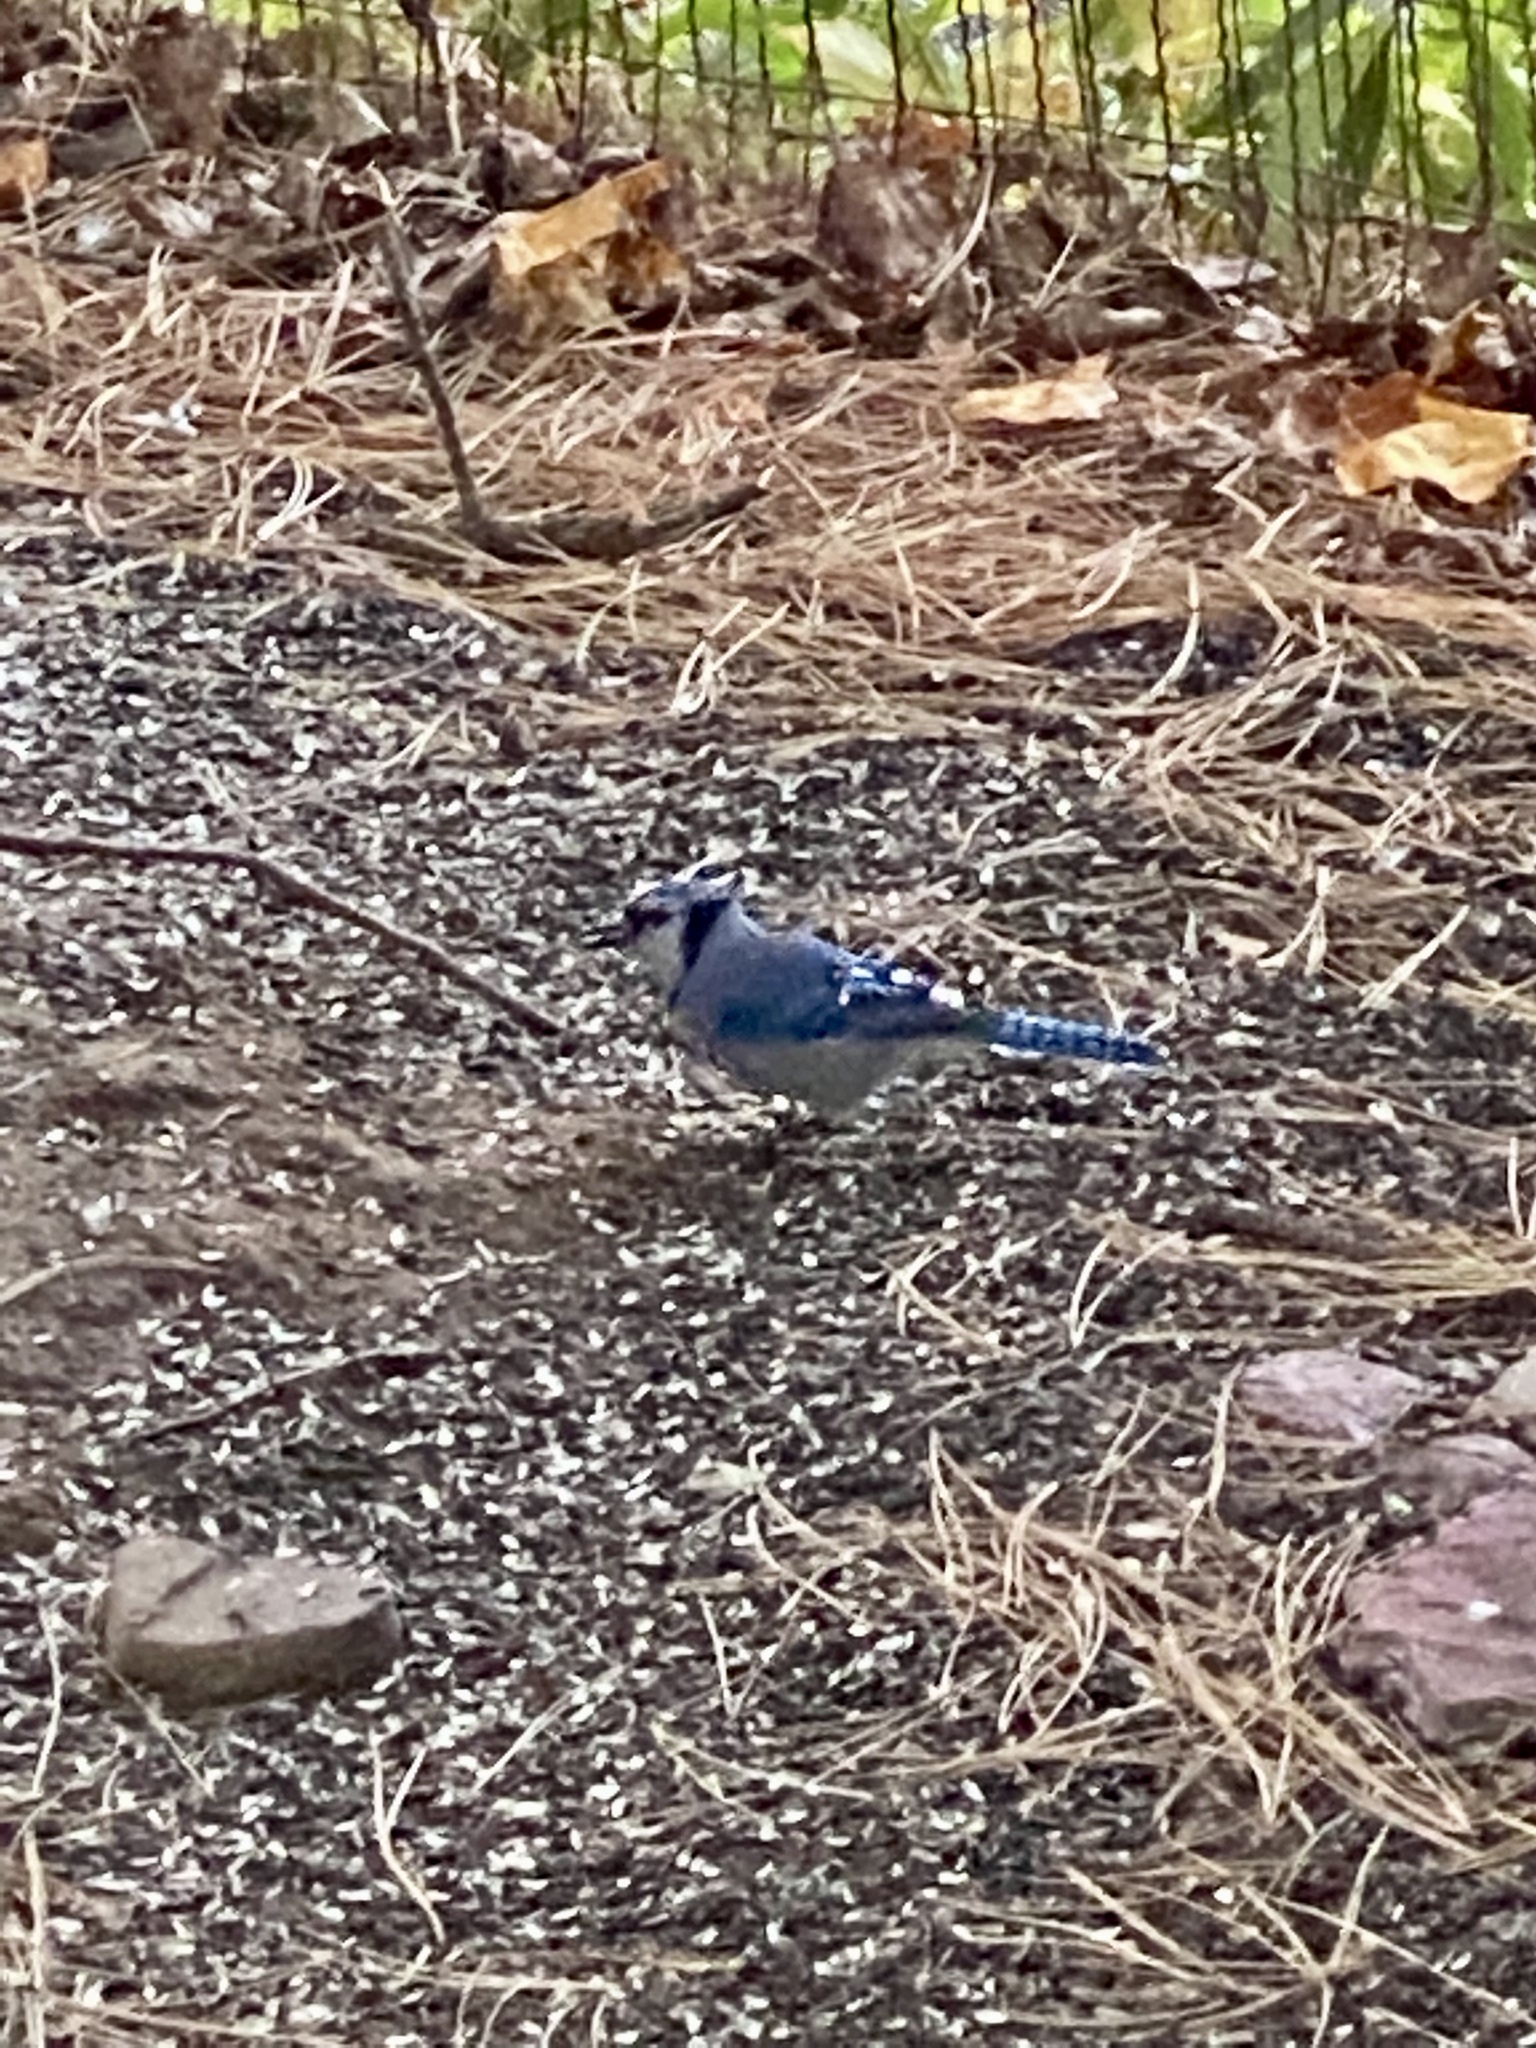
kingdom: Animalia
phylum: Chordata
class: Aves
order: Passeriformes
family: Corvidae
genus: Cyanocitta
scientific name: Cyanocitta cristata
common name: Blue jay
